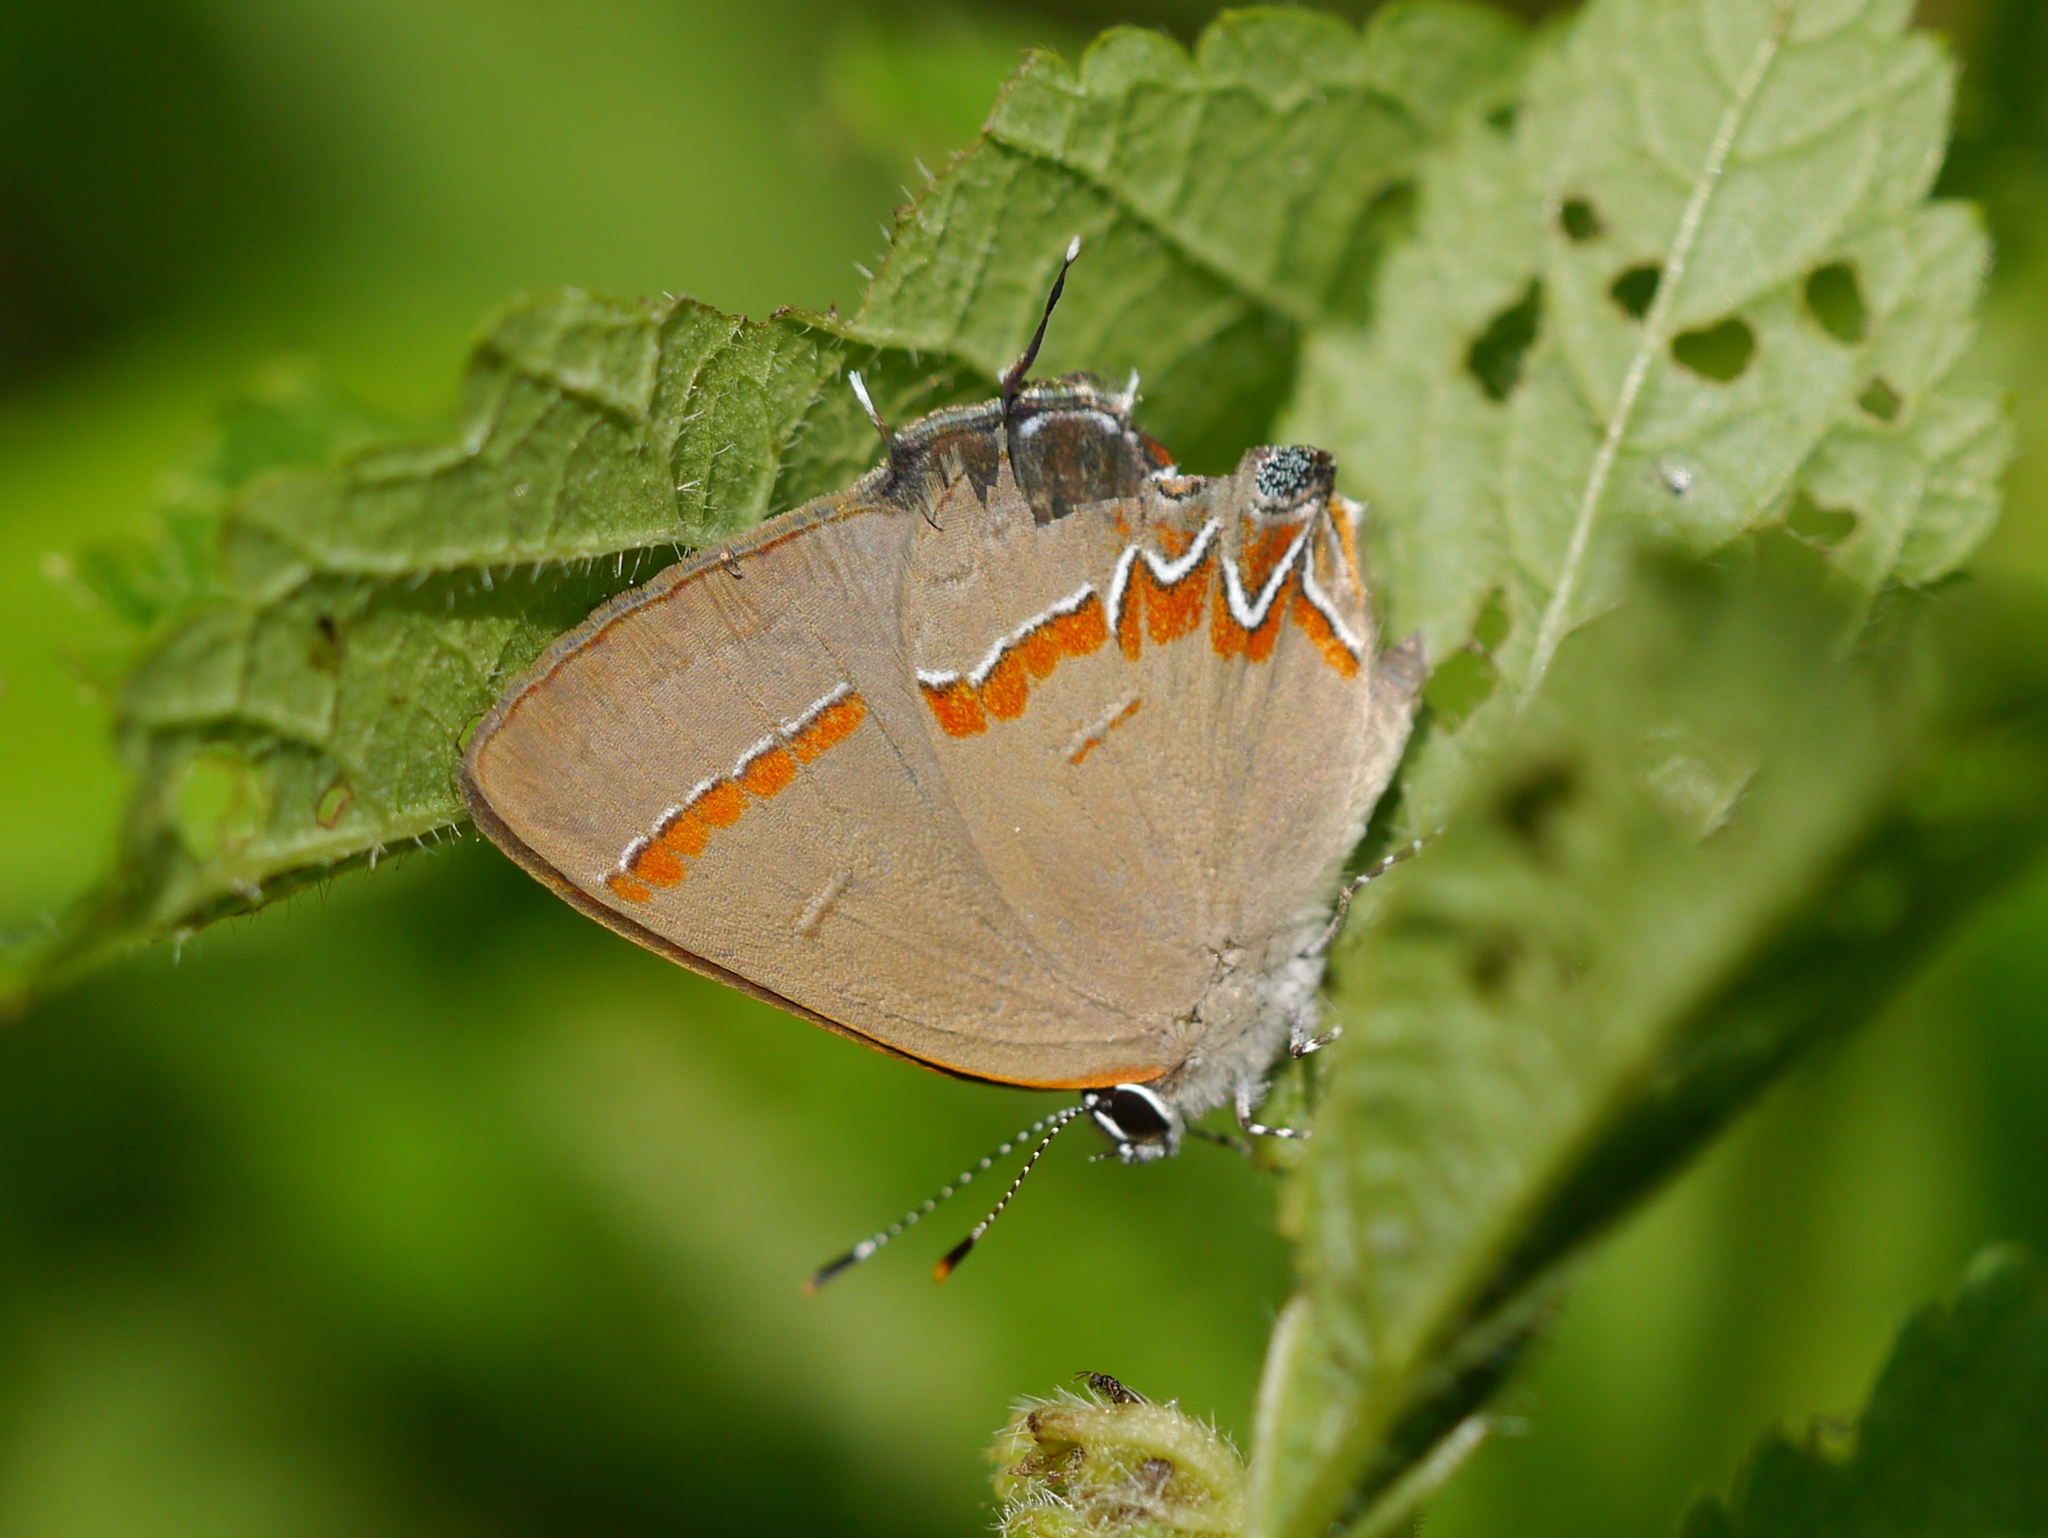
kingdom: Animalia
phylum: Arthropoda
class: Insecta
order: Lepidoptera
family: Lycaenidae
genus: Calycopis
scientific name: Calycopis cecrops
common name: Red-banded hairstreak
